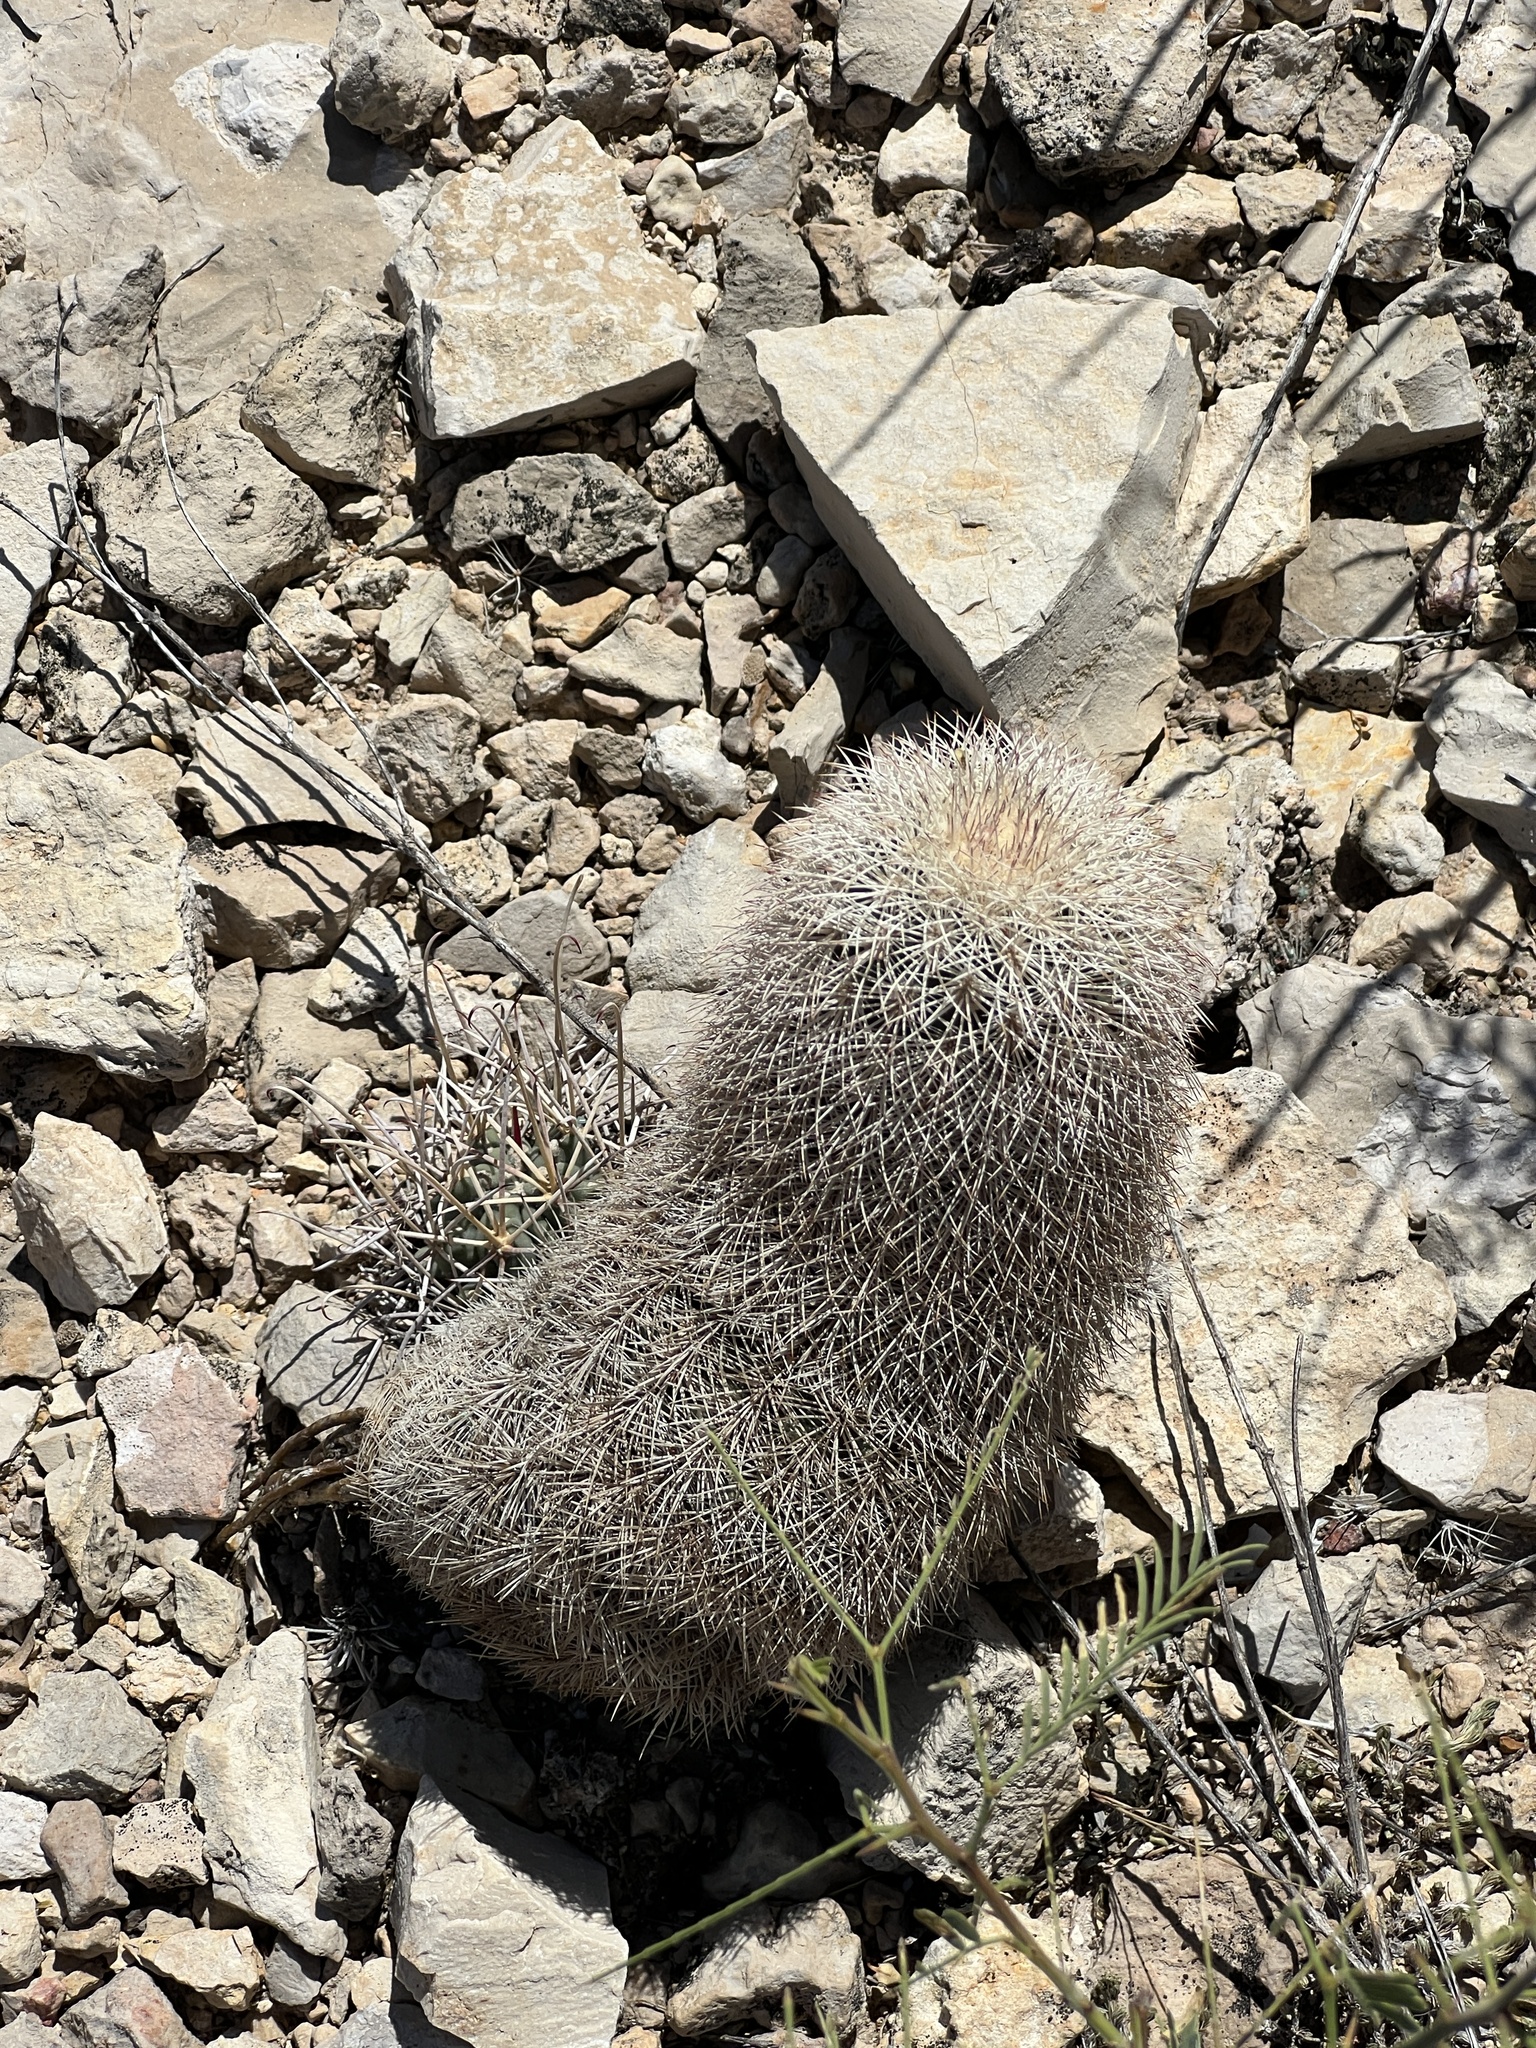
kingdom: Plantae
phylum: Tracheophyta
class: Magnoliopsida
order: Caryophyllales
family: Cactaceae
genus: Echinocereus
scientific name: Echinocereus dasyacanthus
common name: Spiny hedgehog cactus
